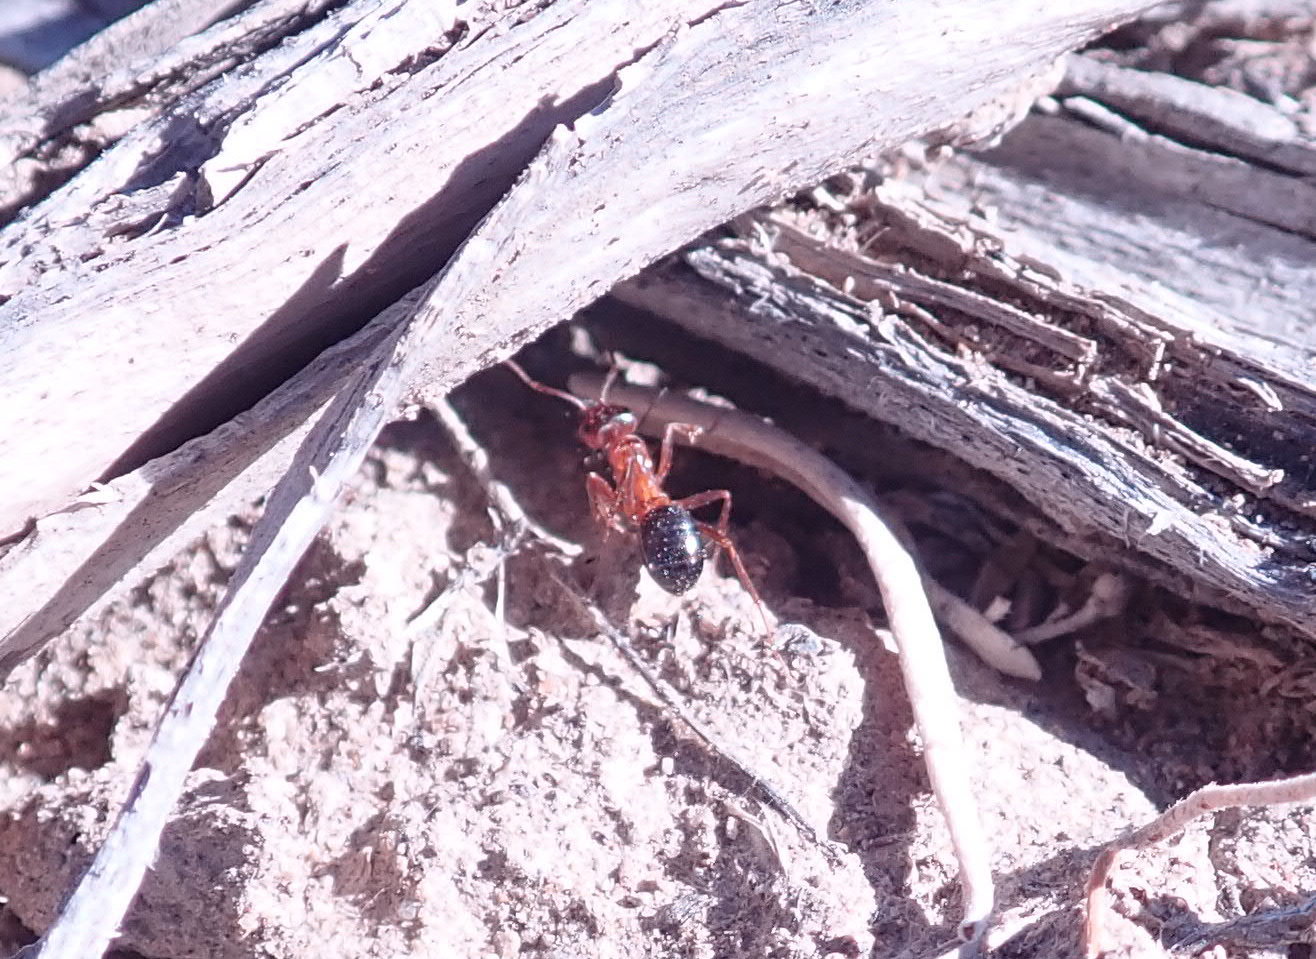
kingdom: Animalia
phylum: Arthropoda
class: Insecta
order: Hymenoptera
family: Formicidae
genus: Formica
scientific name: Formica subpolita
